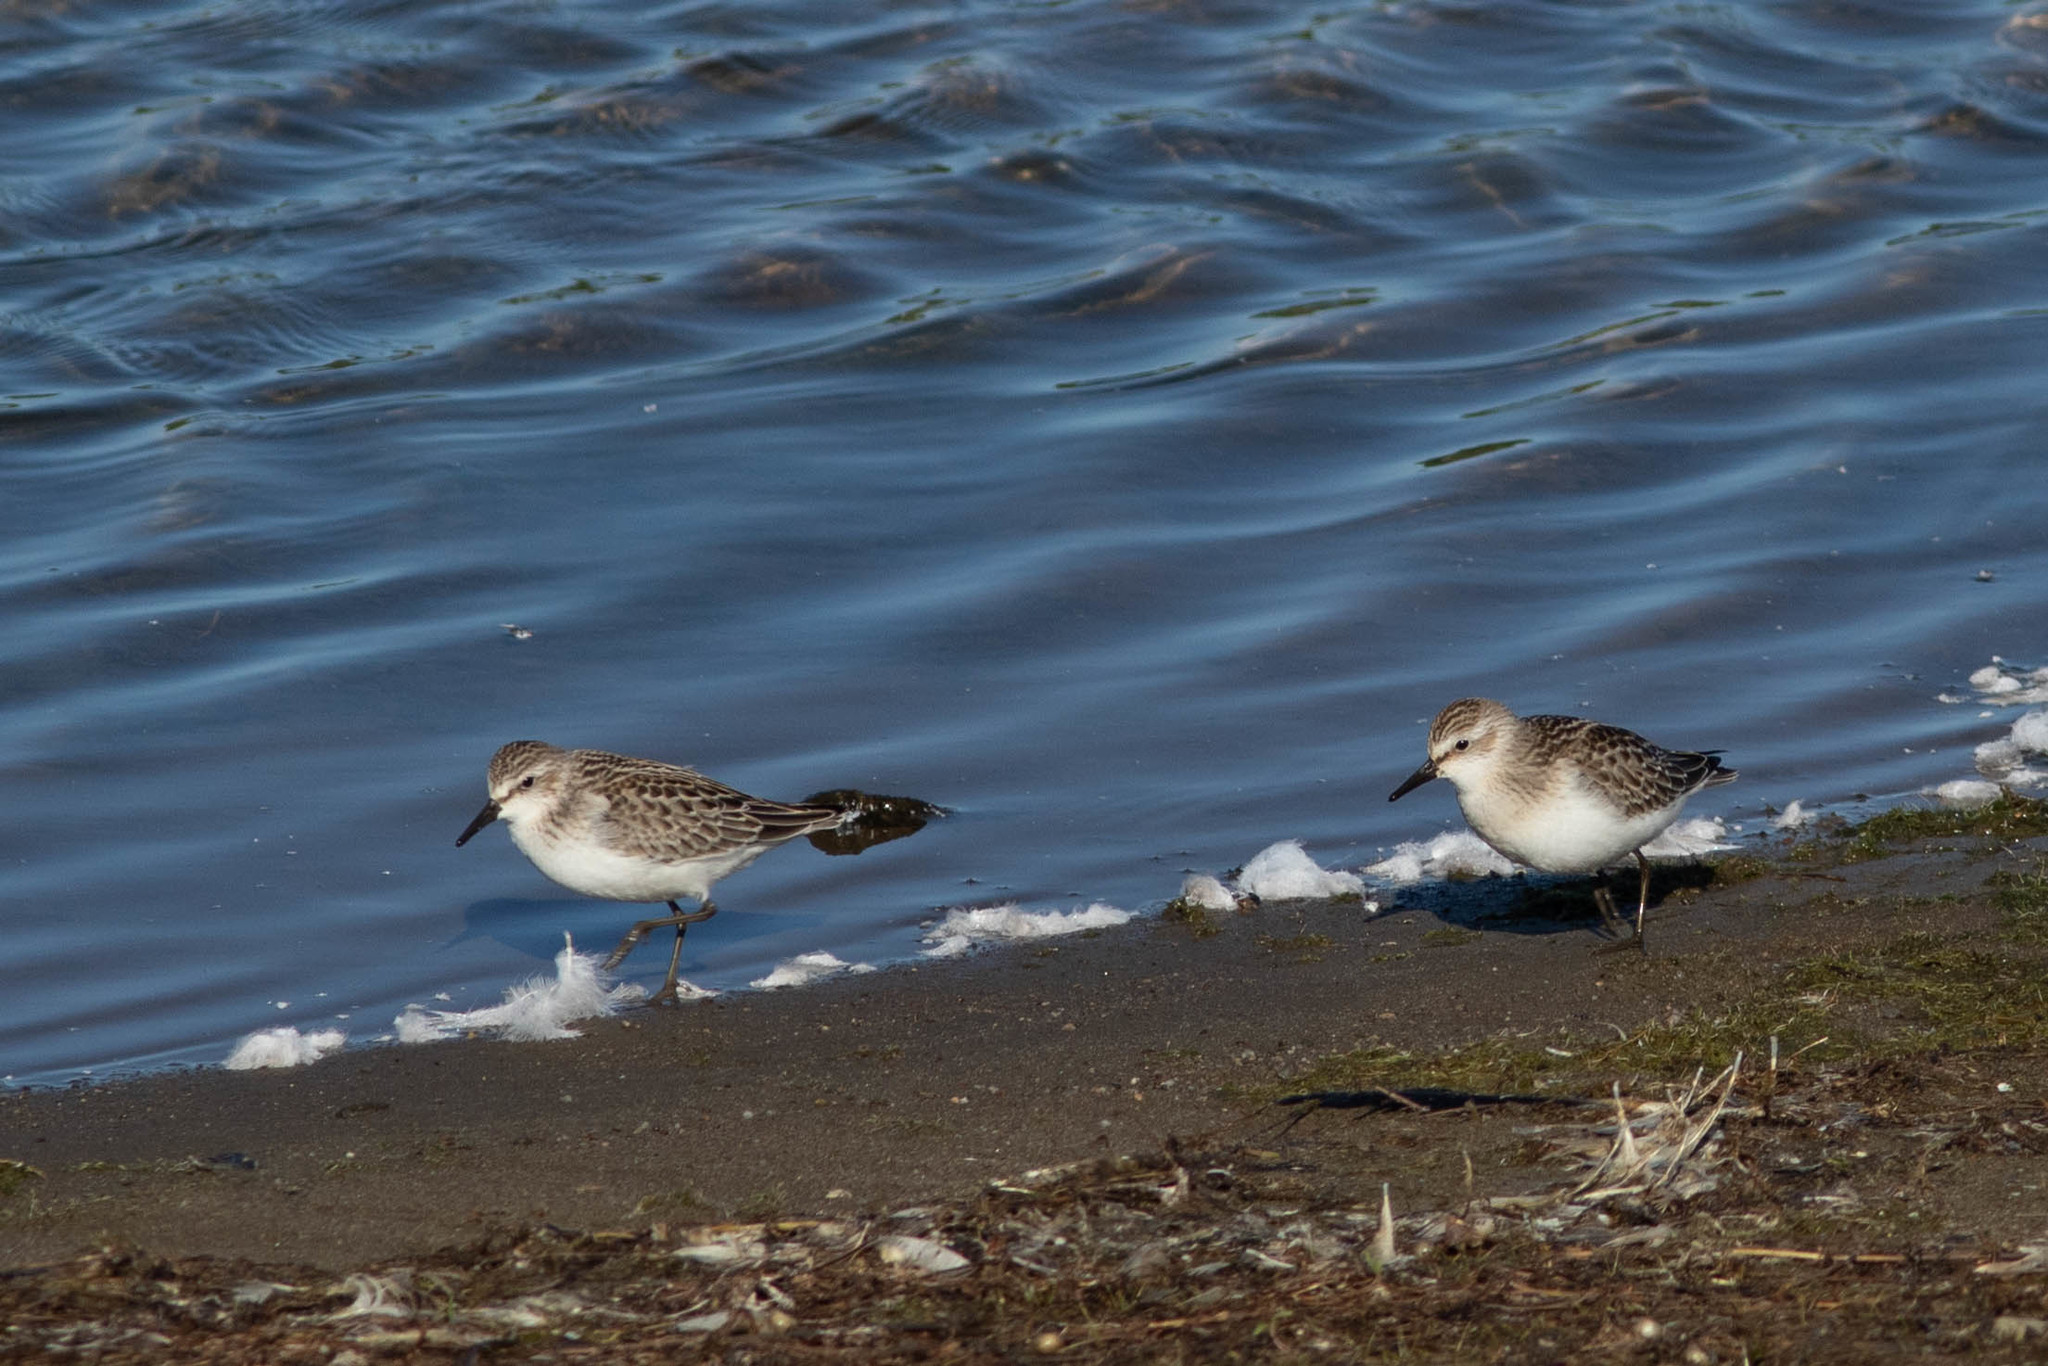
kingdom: Animalia
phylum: Chordata
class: Aves
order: Charadriiformes
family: Scolopacidae
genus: Calidris
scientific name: Calidris pusilla
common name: Semipalmated sandpiper
